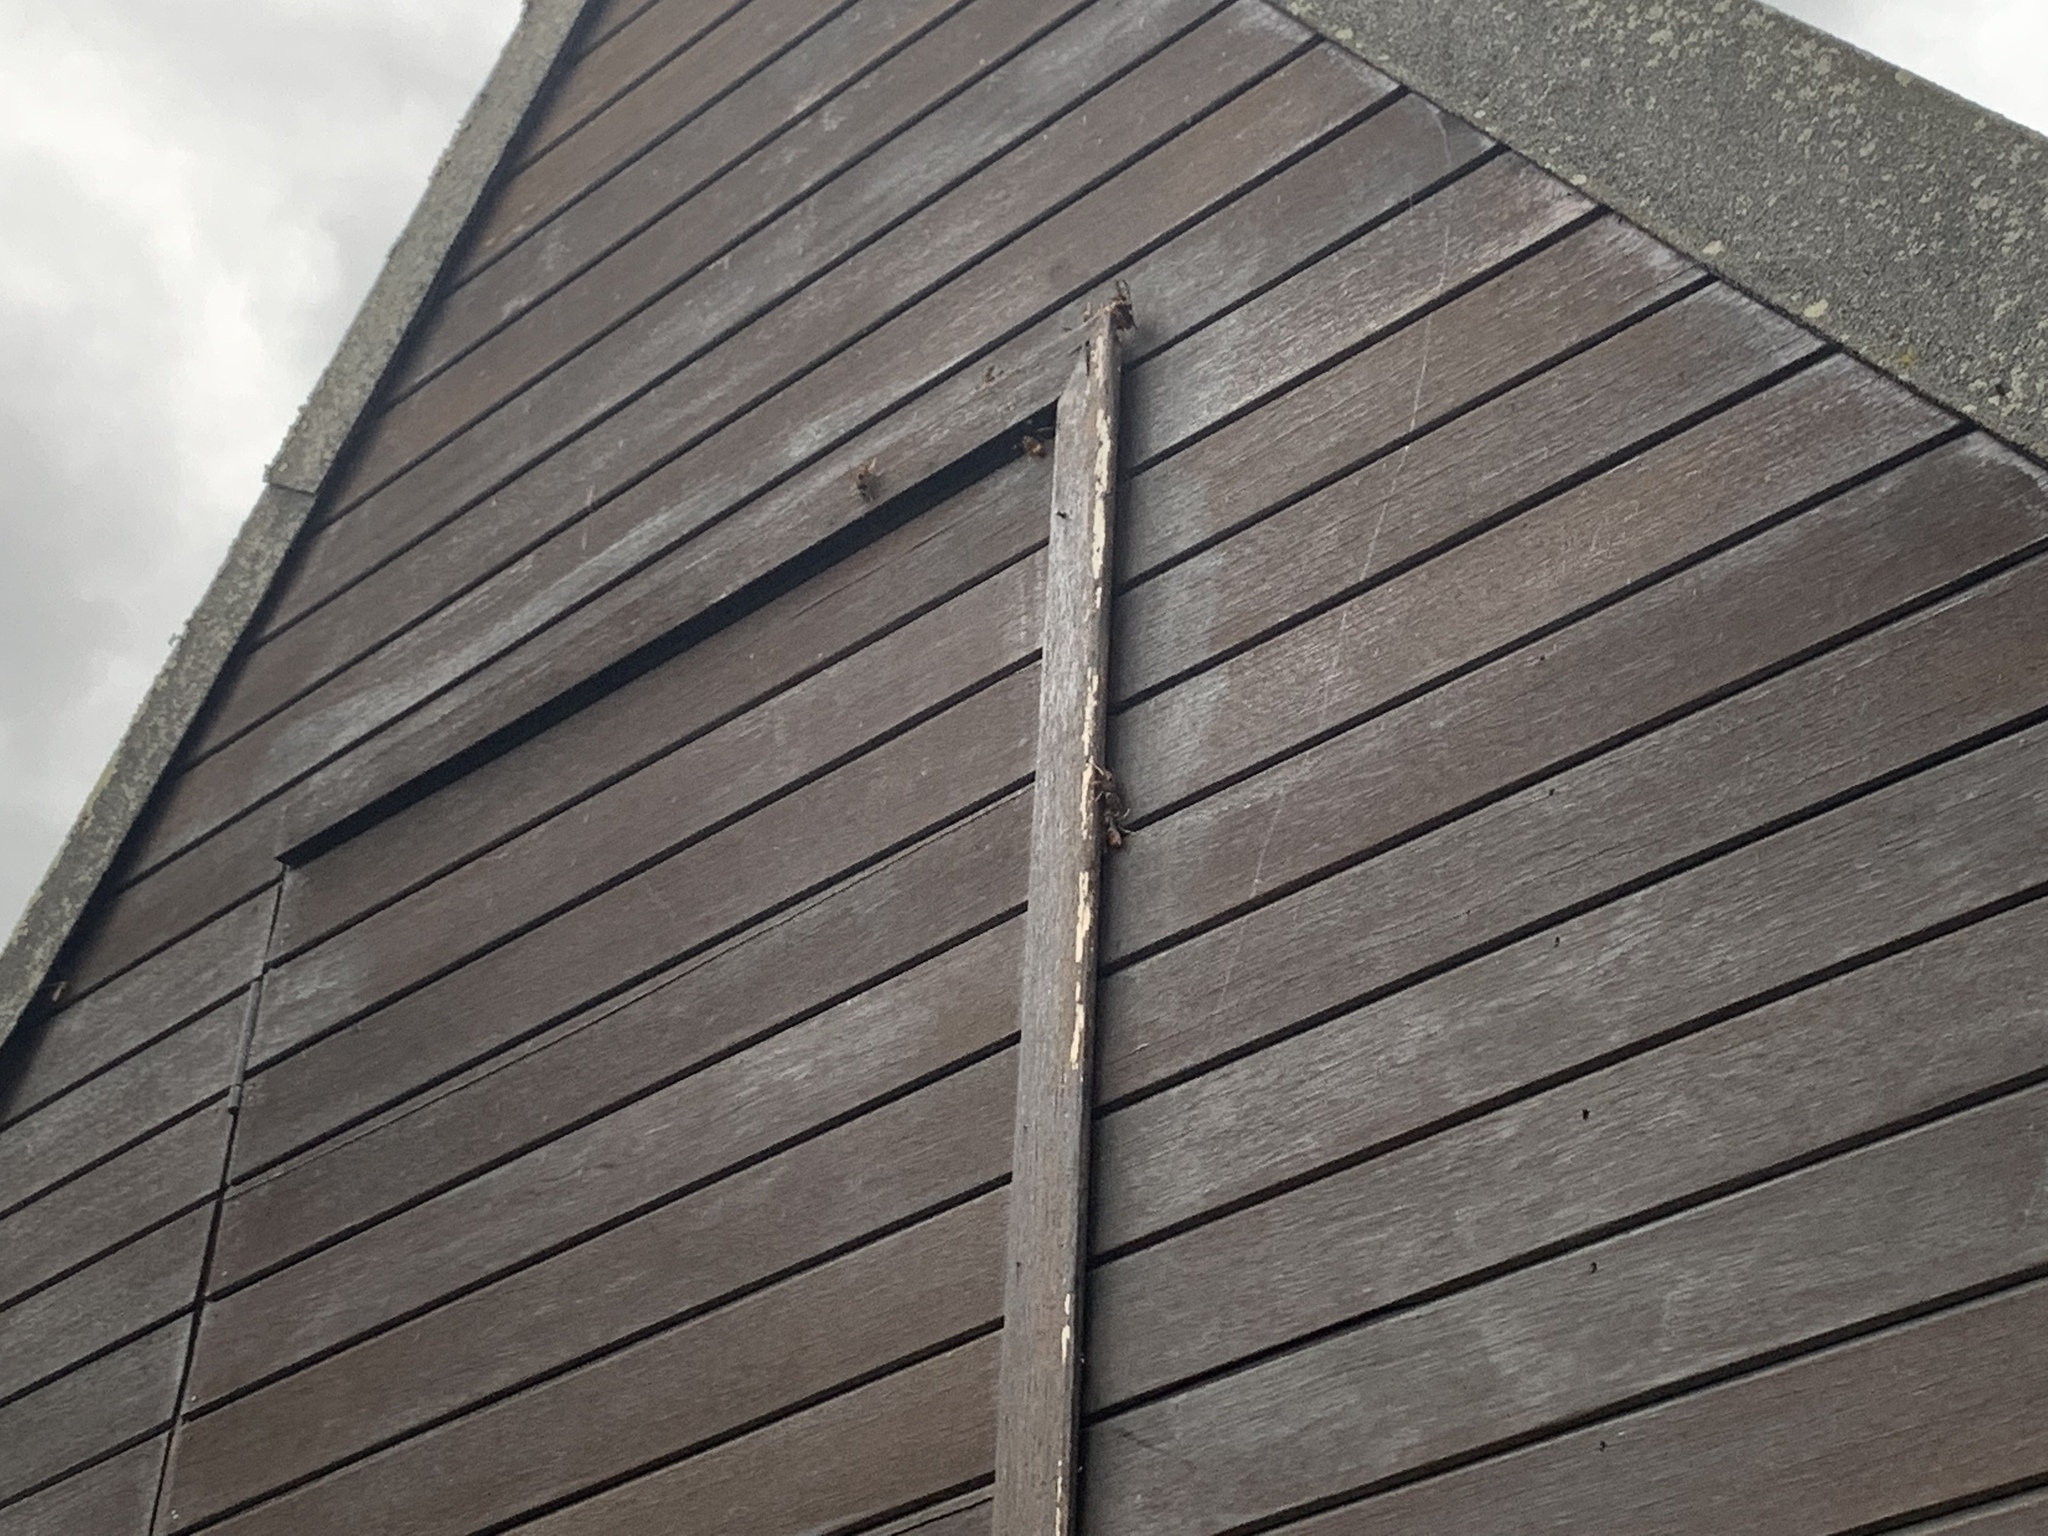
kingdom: Animalia
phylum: Arthropoda
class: Insecta
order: Hymenoptera
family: Vespidae
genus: Vespa
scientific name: Vespa velutina
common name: Asian hornet
